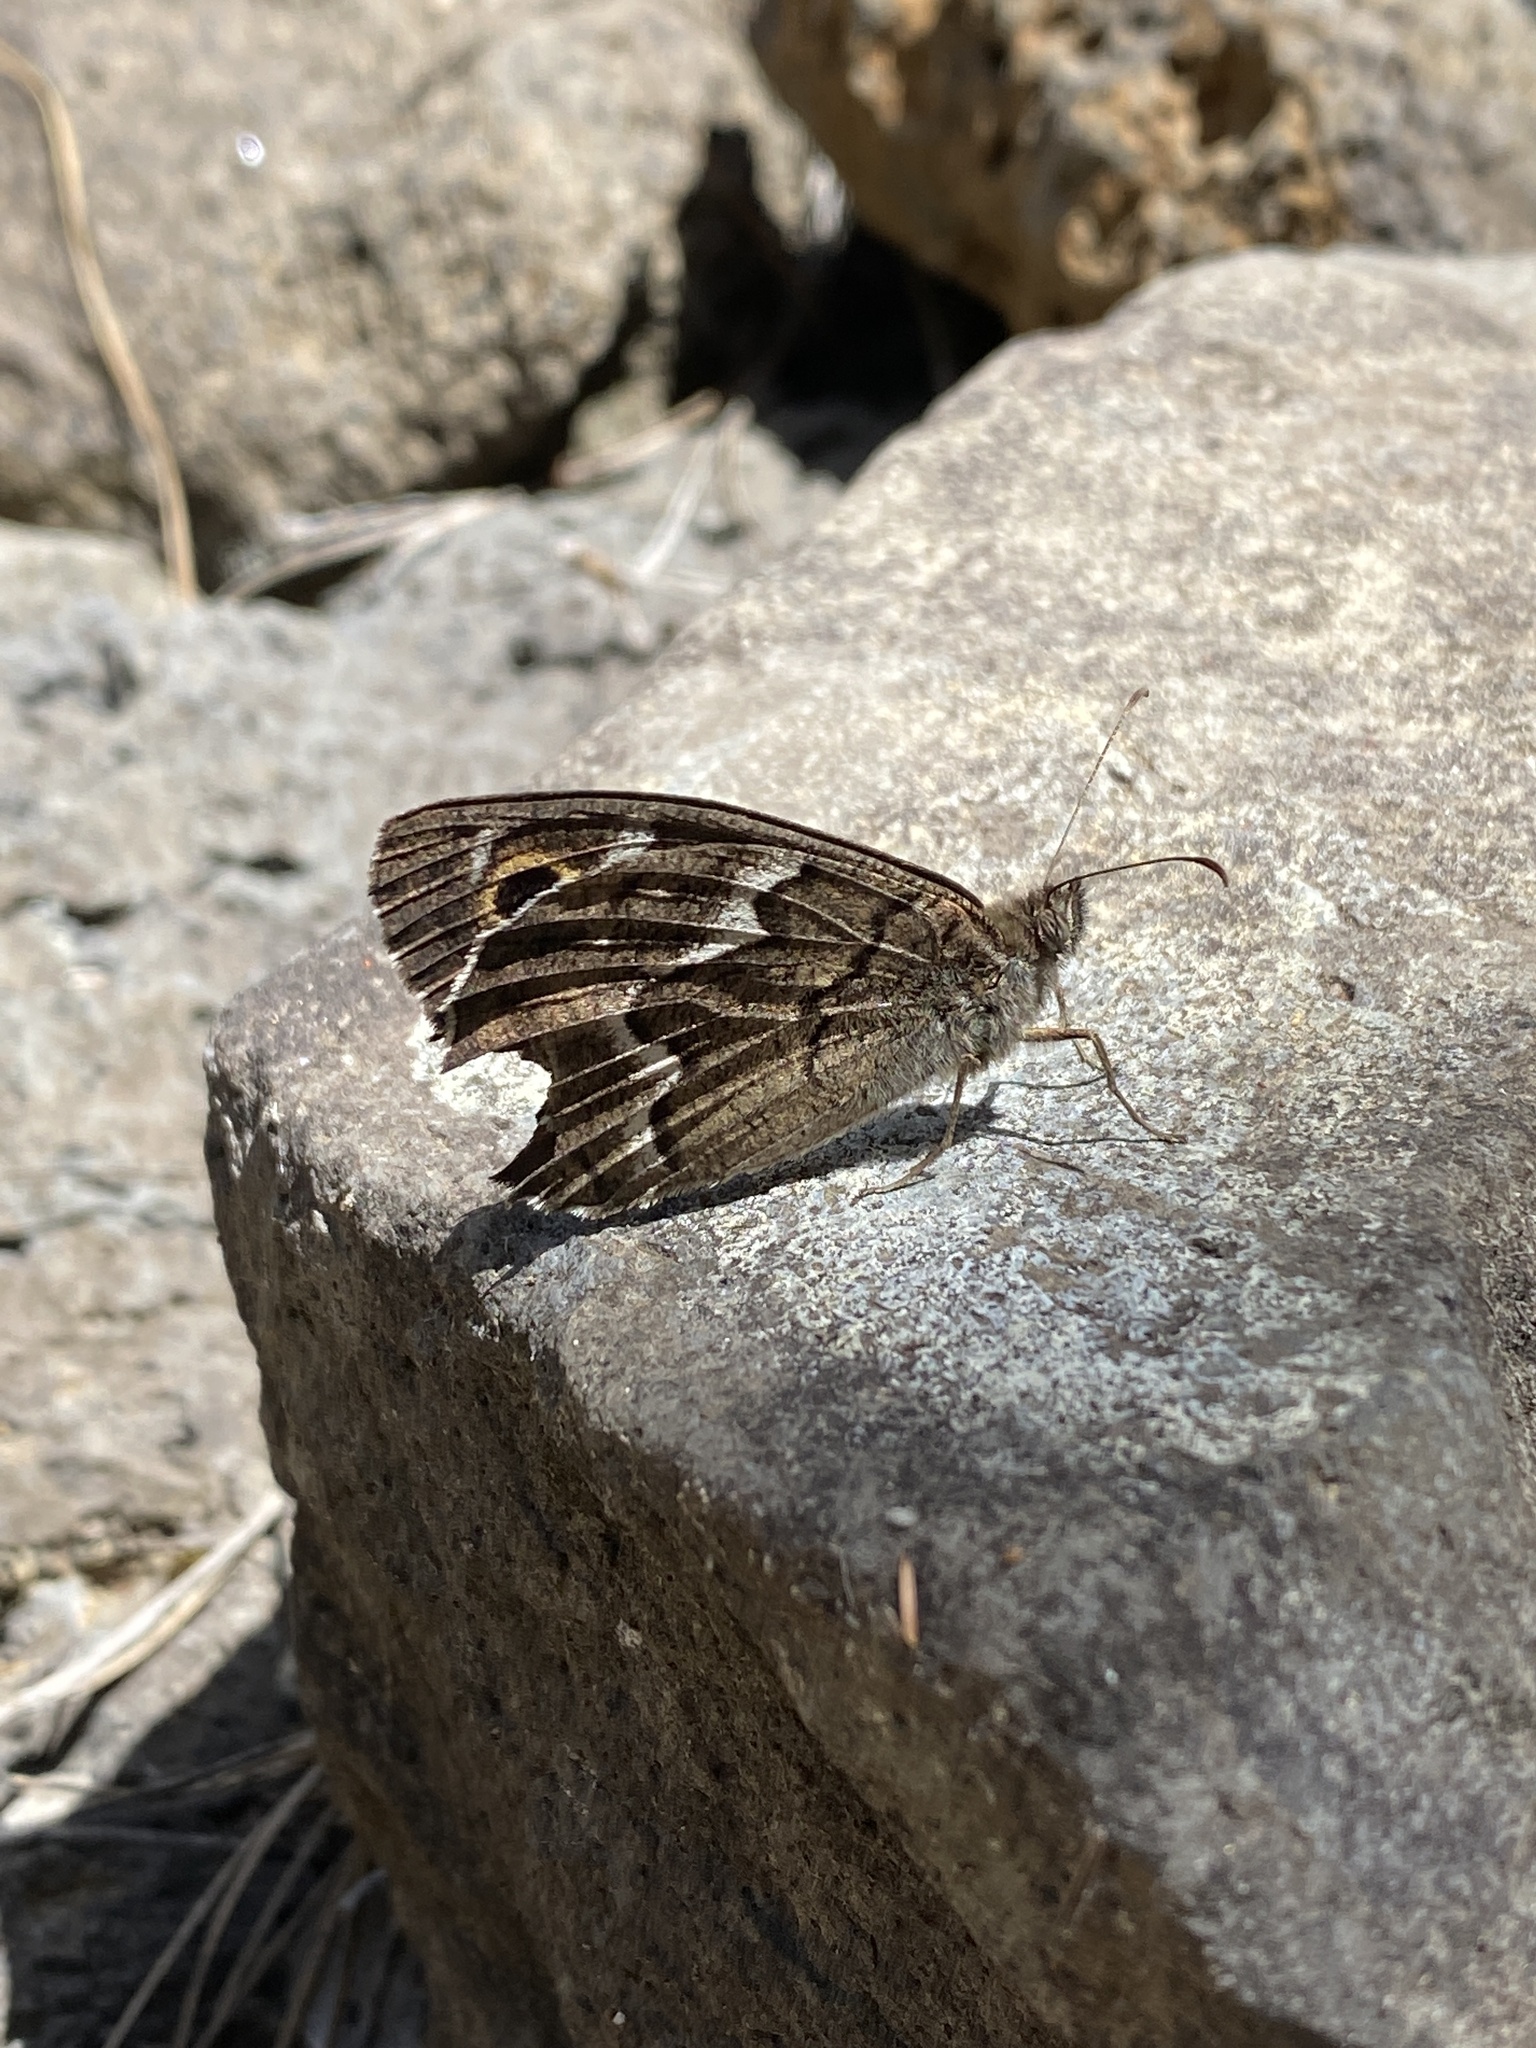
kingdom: Animalia
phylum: Arthropoda
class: Insecta
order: Lepidoptera
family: Nymphalidae
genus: Hipparchia
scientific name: Hipparchia tilosi
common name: La palma grayling
